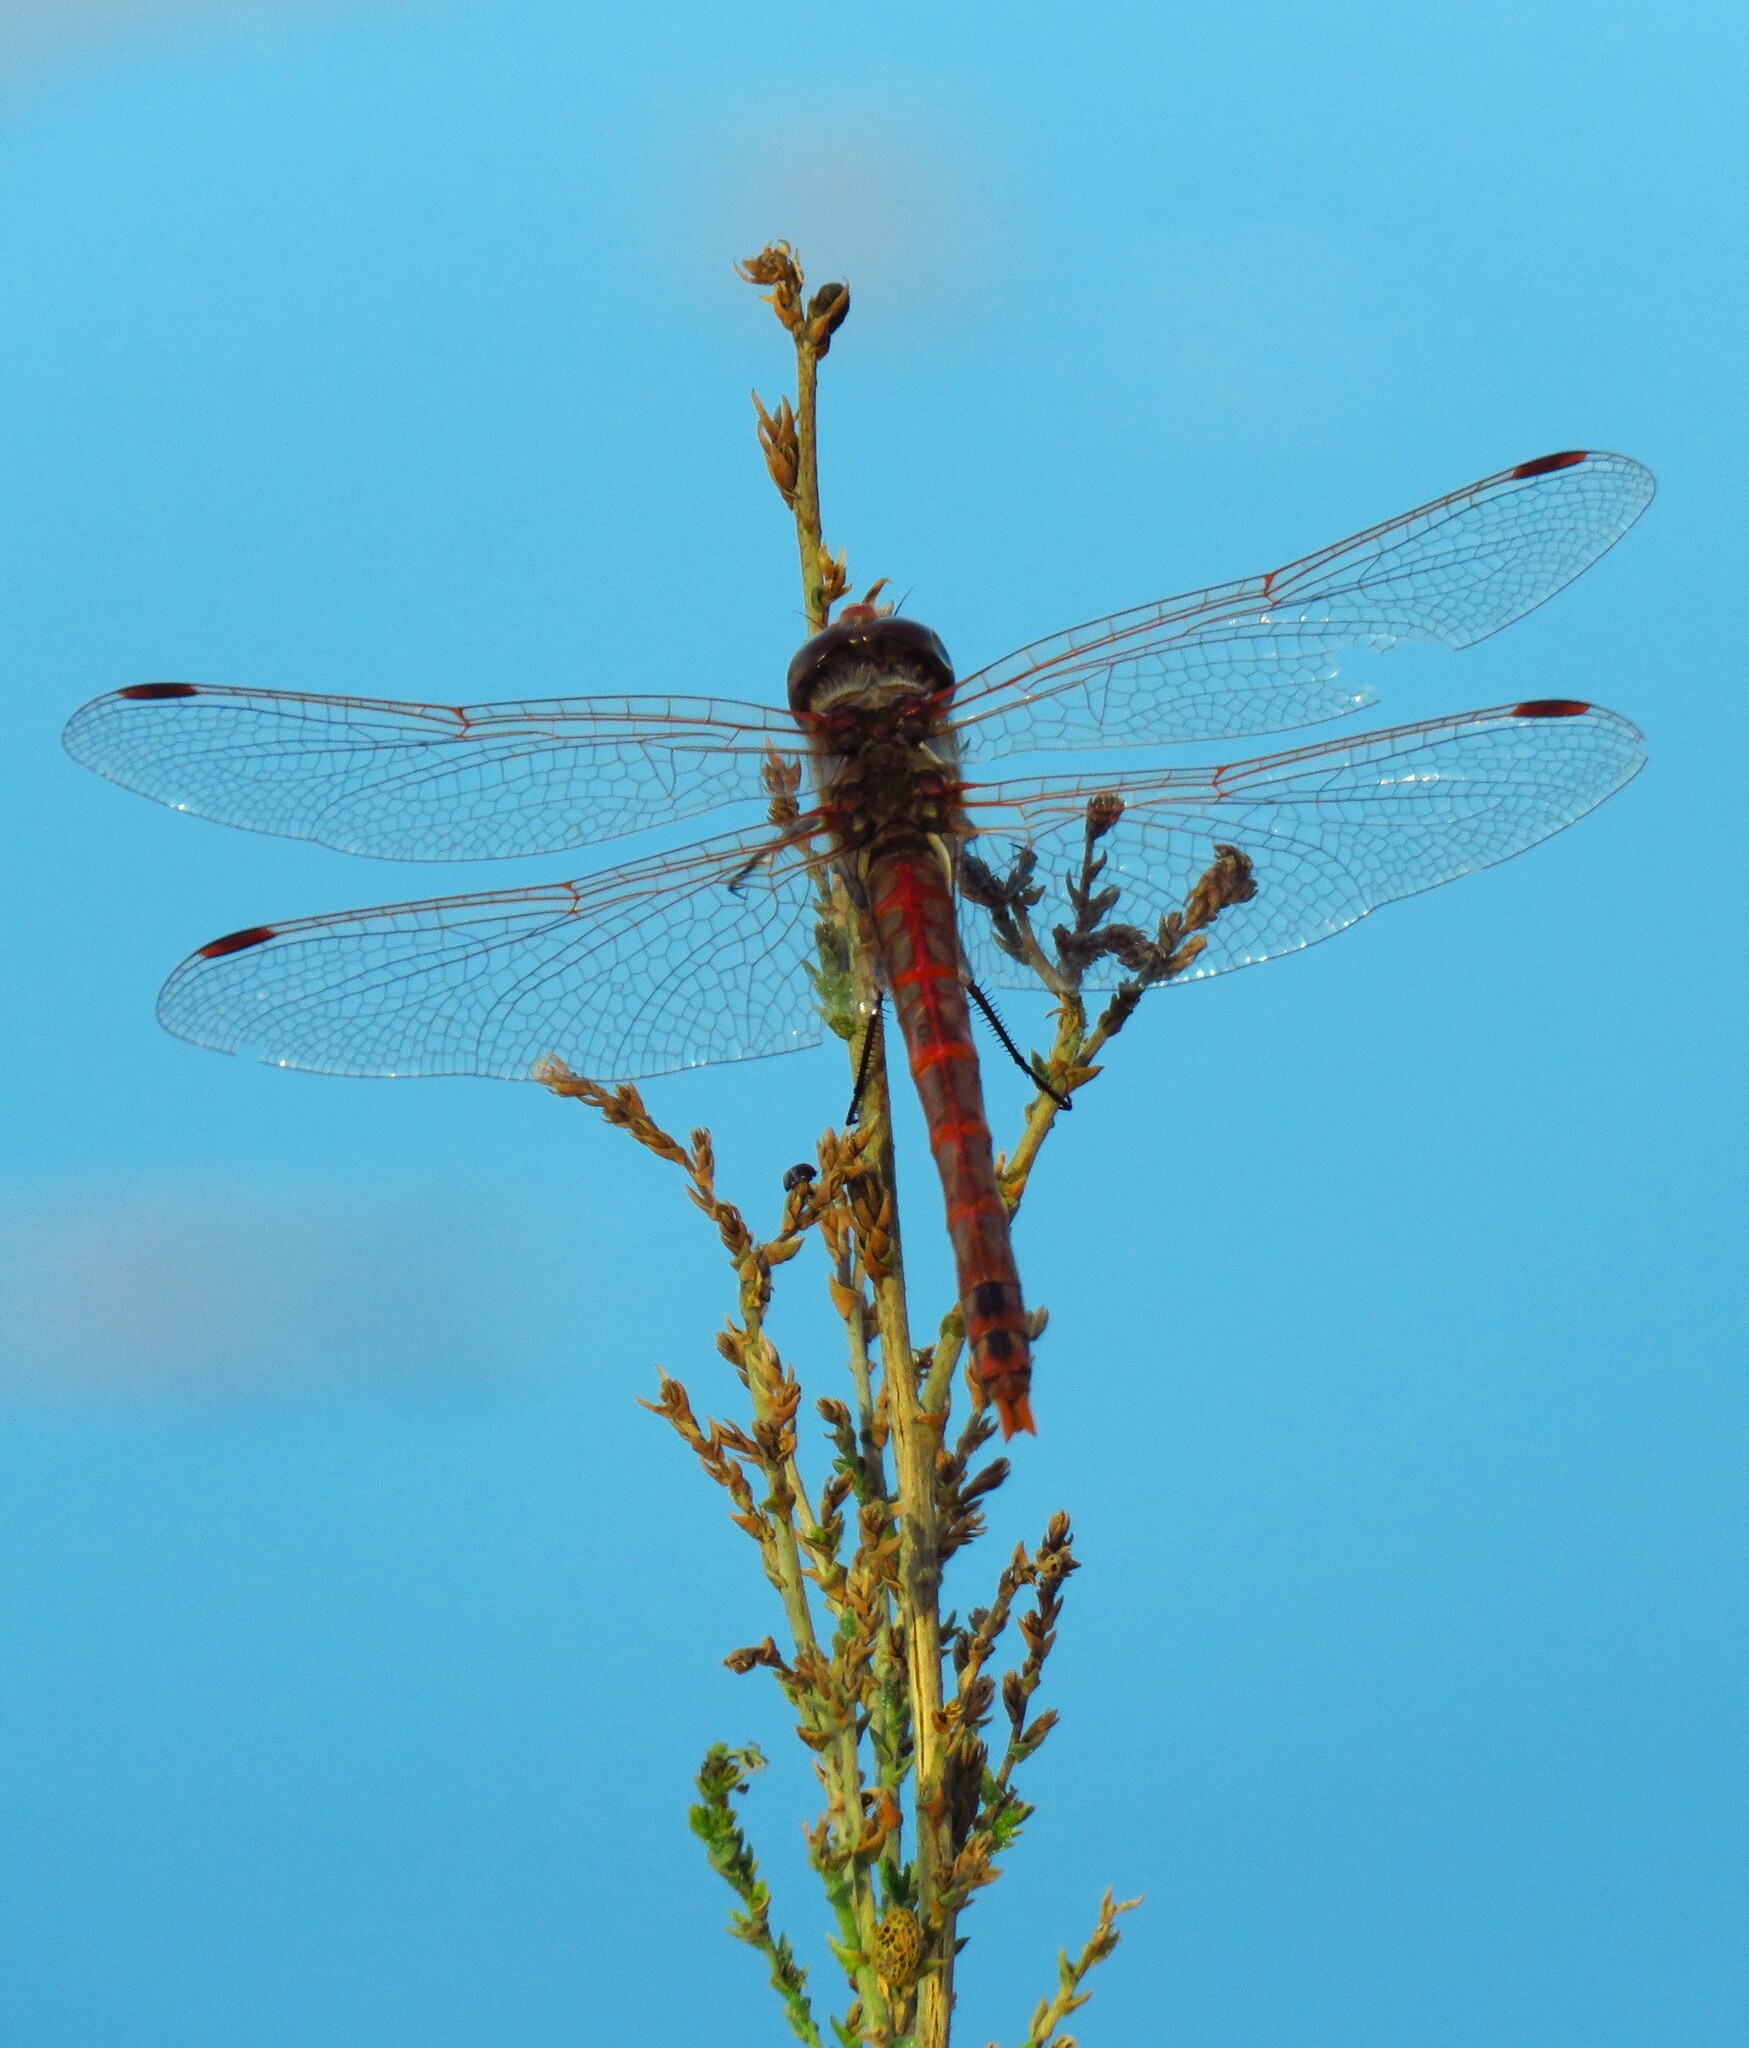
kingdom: Animalia
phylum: Arthropoda
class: Insecta
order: Odonata
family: Libellulidae
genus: Sympetrum
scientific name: Sympetrum corruptum
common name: Variegated meadowhawk
